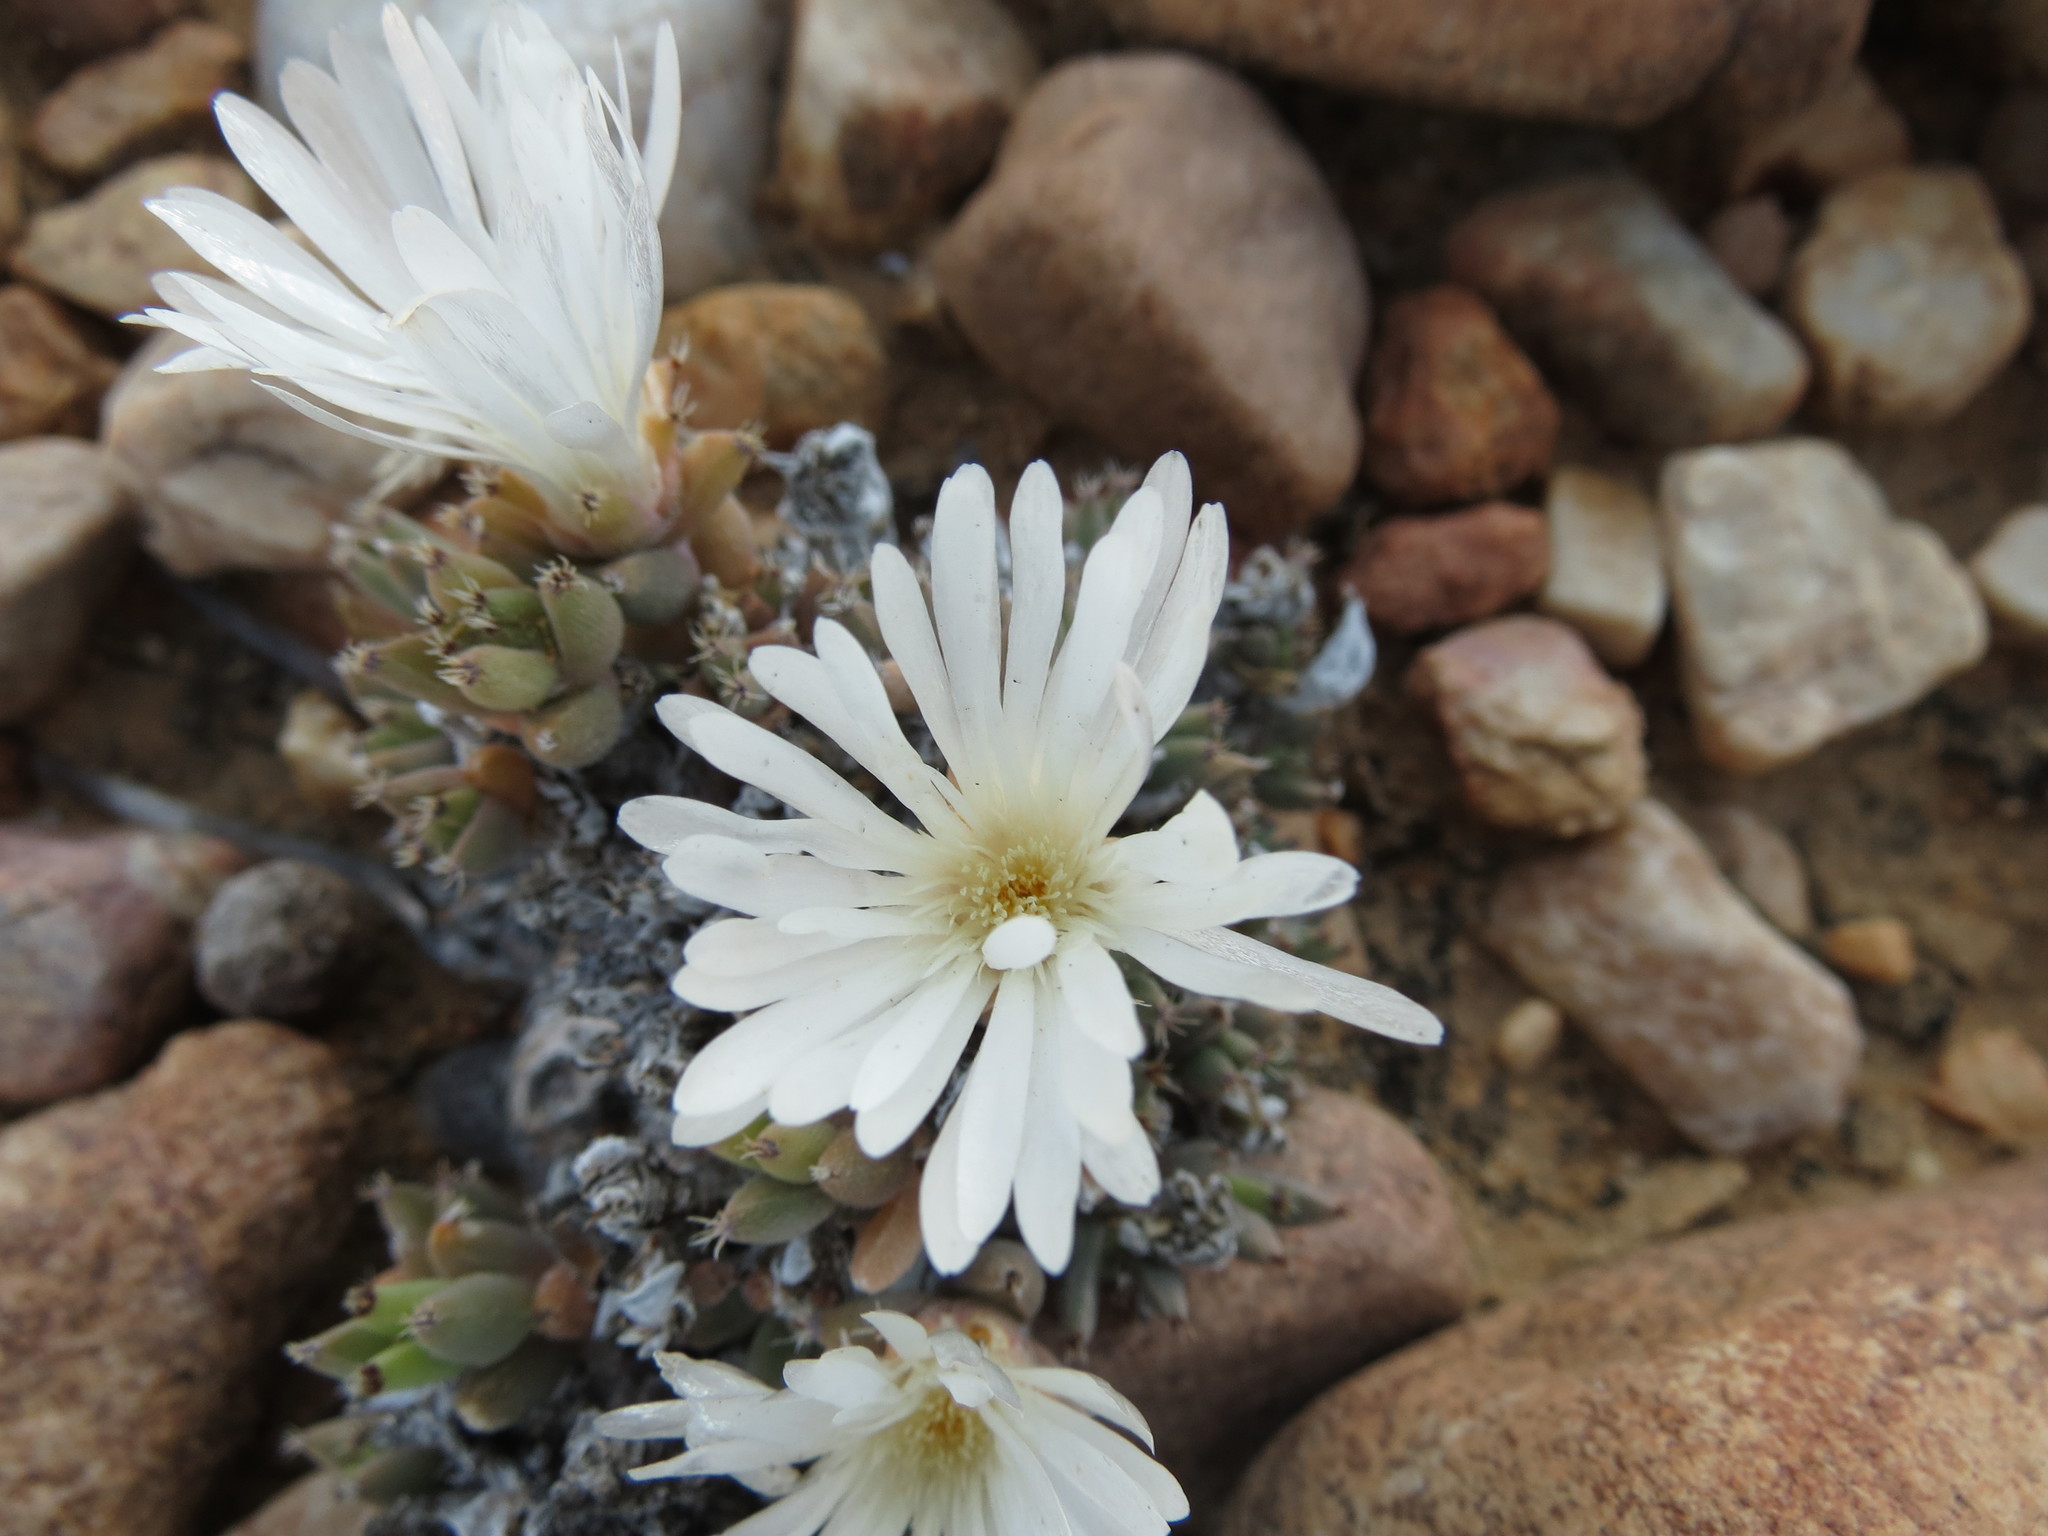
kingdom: Plantae
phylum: Tracheophyta
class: Magnoliopsida
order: Caryophyllales
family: Aizoaceae
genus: Trichodiadema
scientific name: Trichodiadema mirabile
